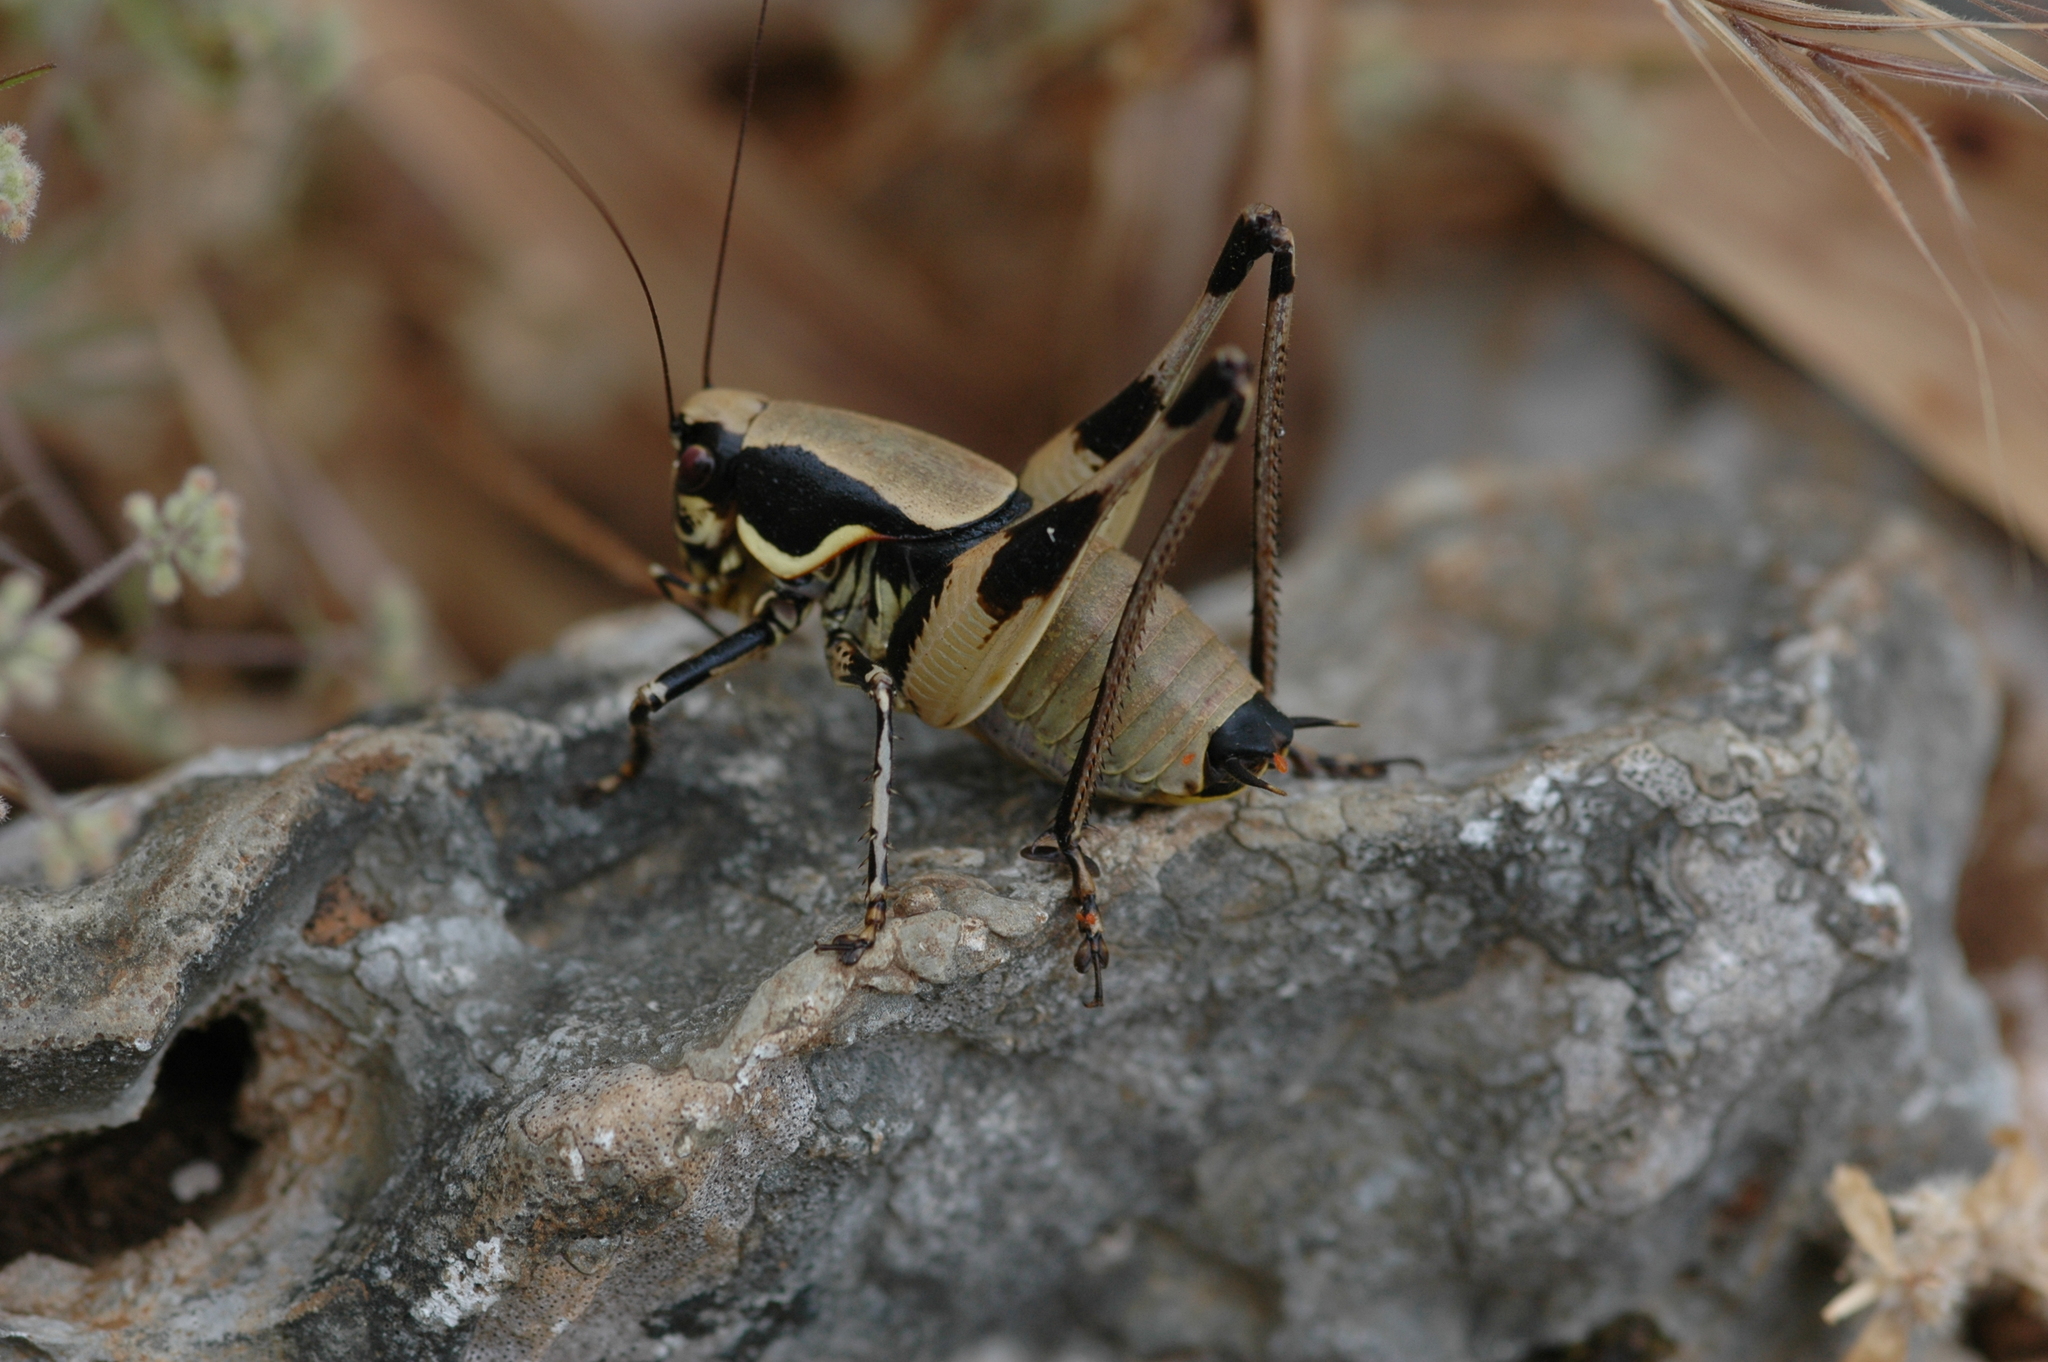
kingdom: Animalia
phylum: Arthropoda
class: Insecta
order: Orthoptera
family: Tettigoniidae
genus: Eupholidoptera
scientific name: Eupholidoptera krueperi
